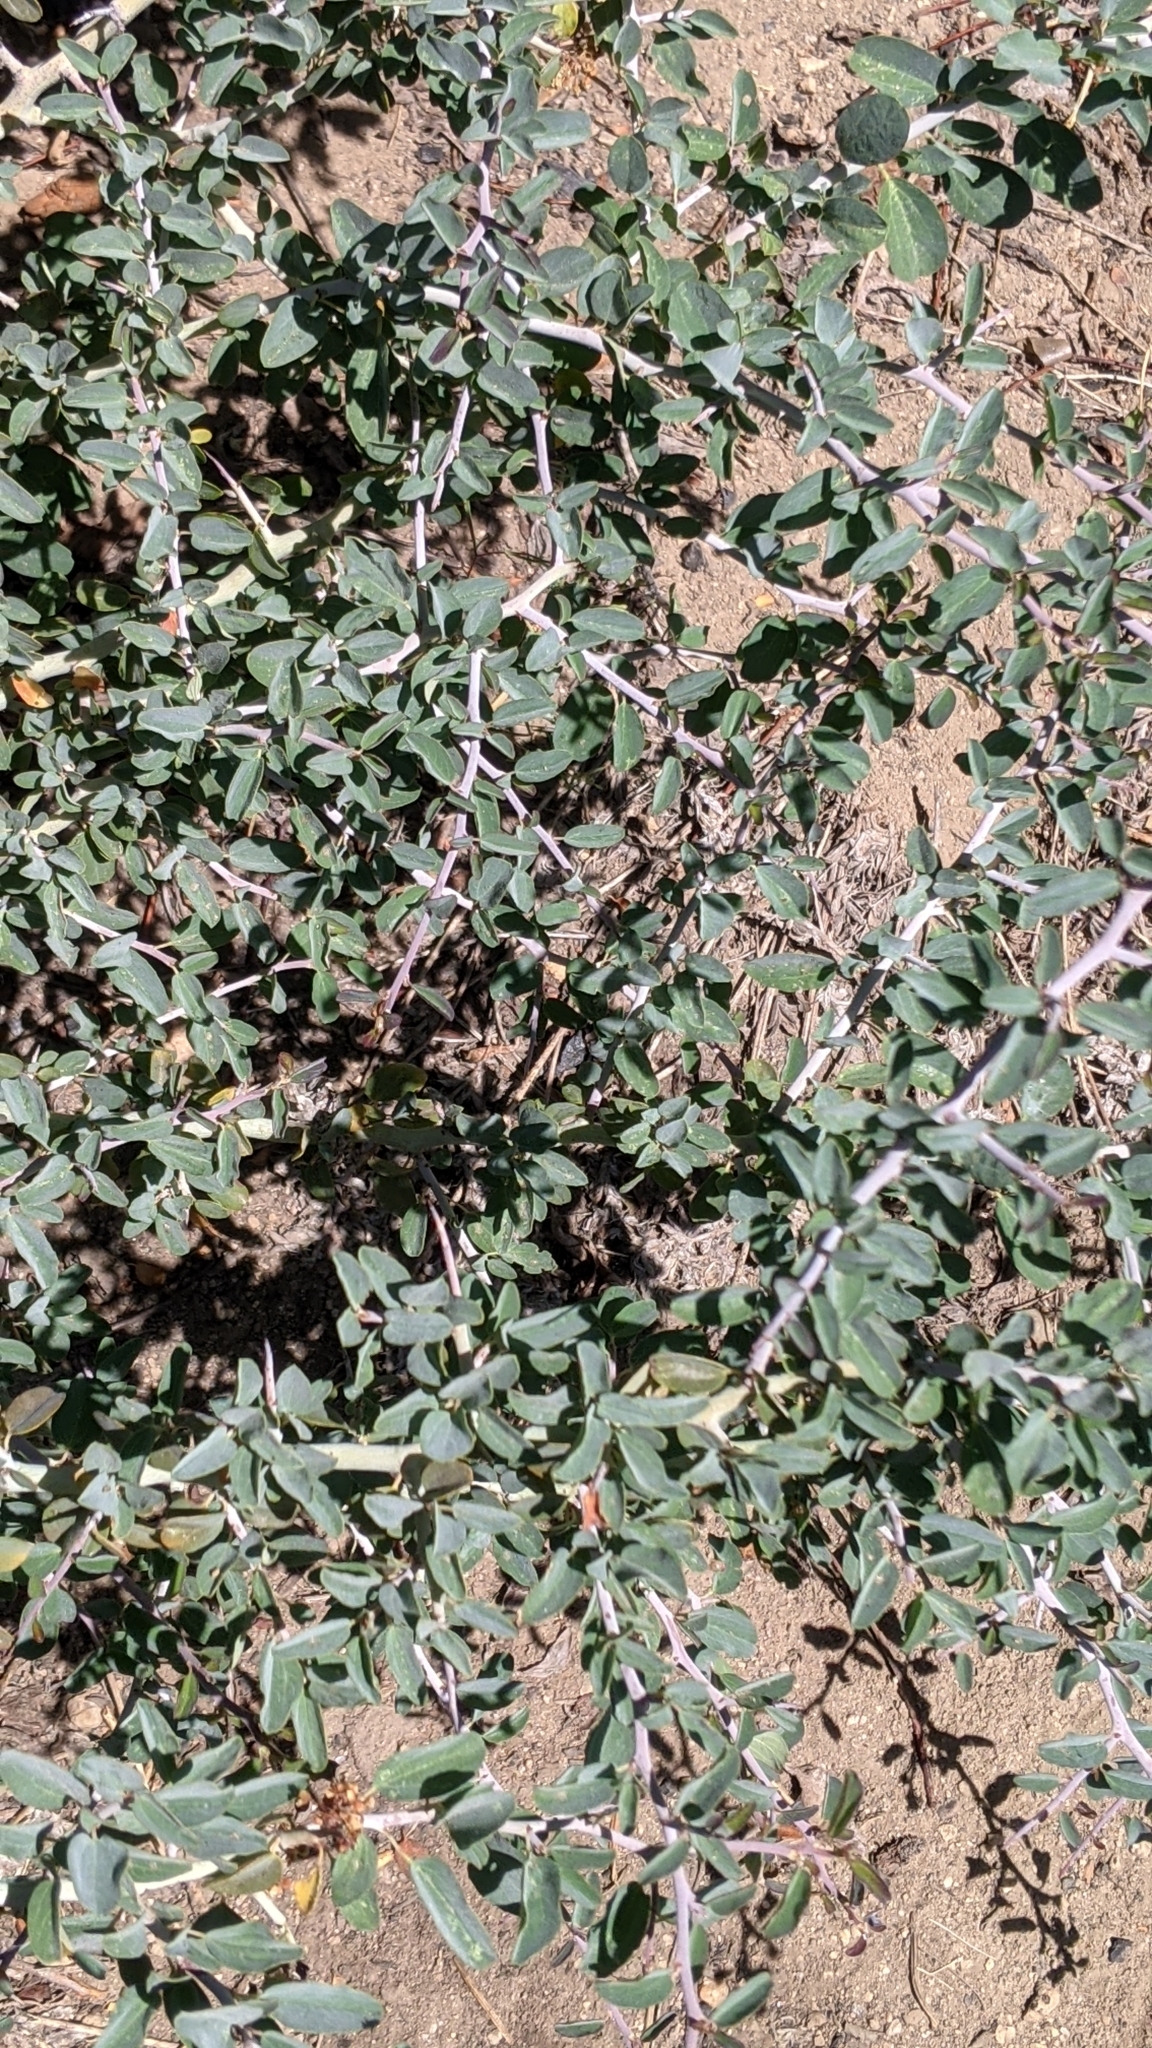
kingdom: Plantae
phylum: Tracheophyta
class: Magnoliopsida
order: Rosales
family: Rhamnaceae
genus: Ceanothus
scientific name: Ceanothus cordulatus
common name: Mountain whitethorn
